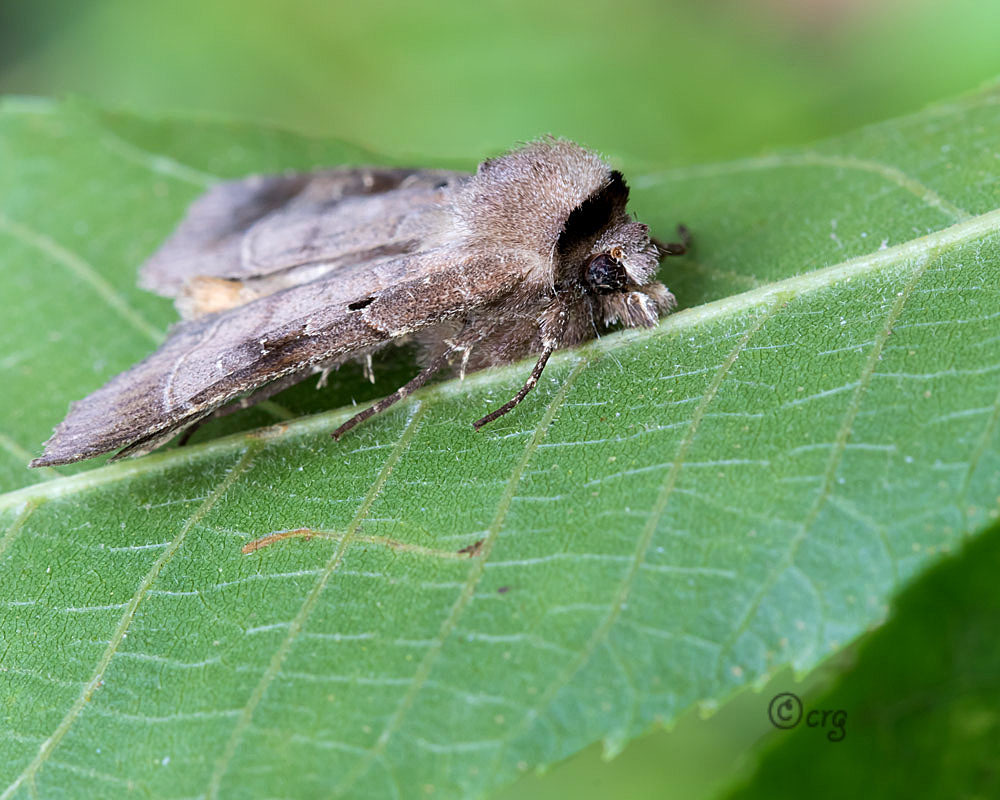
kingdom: Animalia
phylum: Arthropoda
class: Insecta
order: Lepidoptera
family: Noctuidae
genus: Agnorisma
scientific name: Agnorisma badinodis
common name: Pale-banded dart
